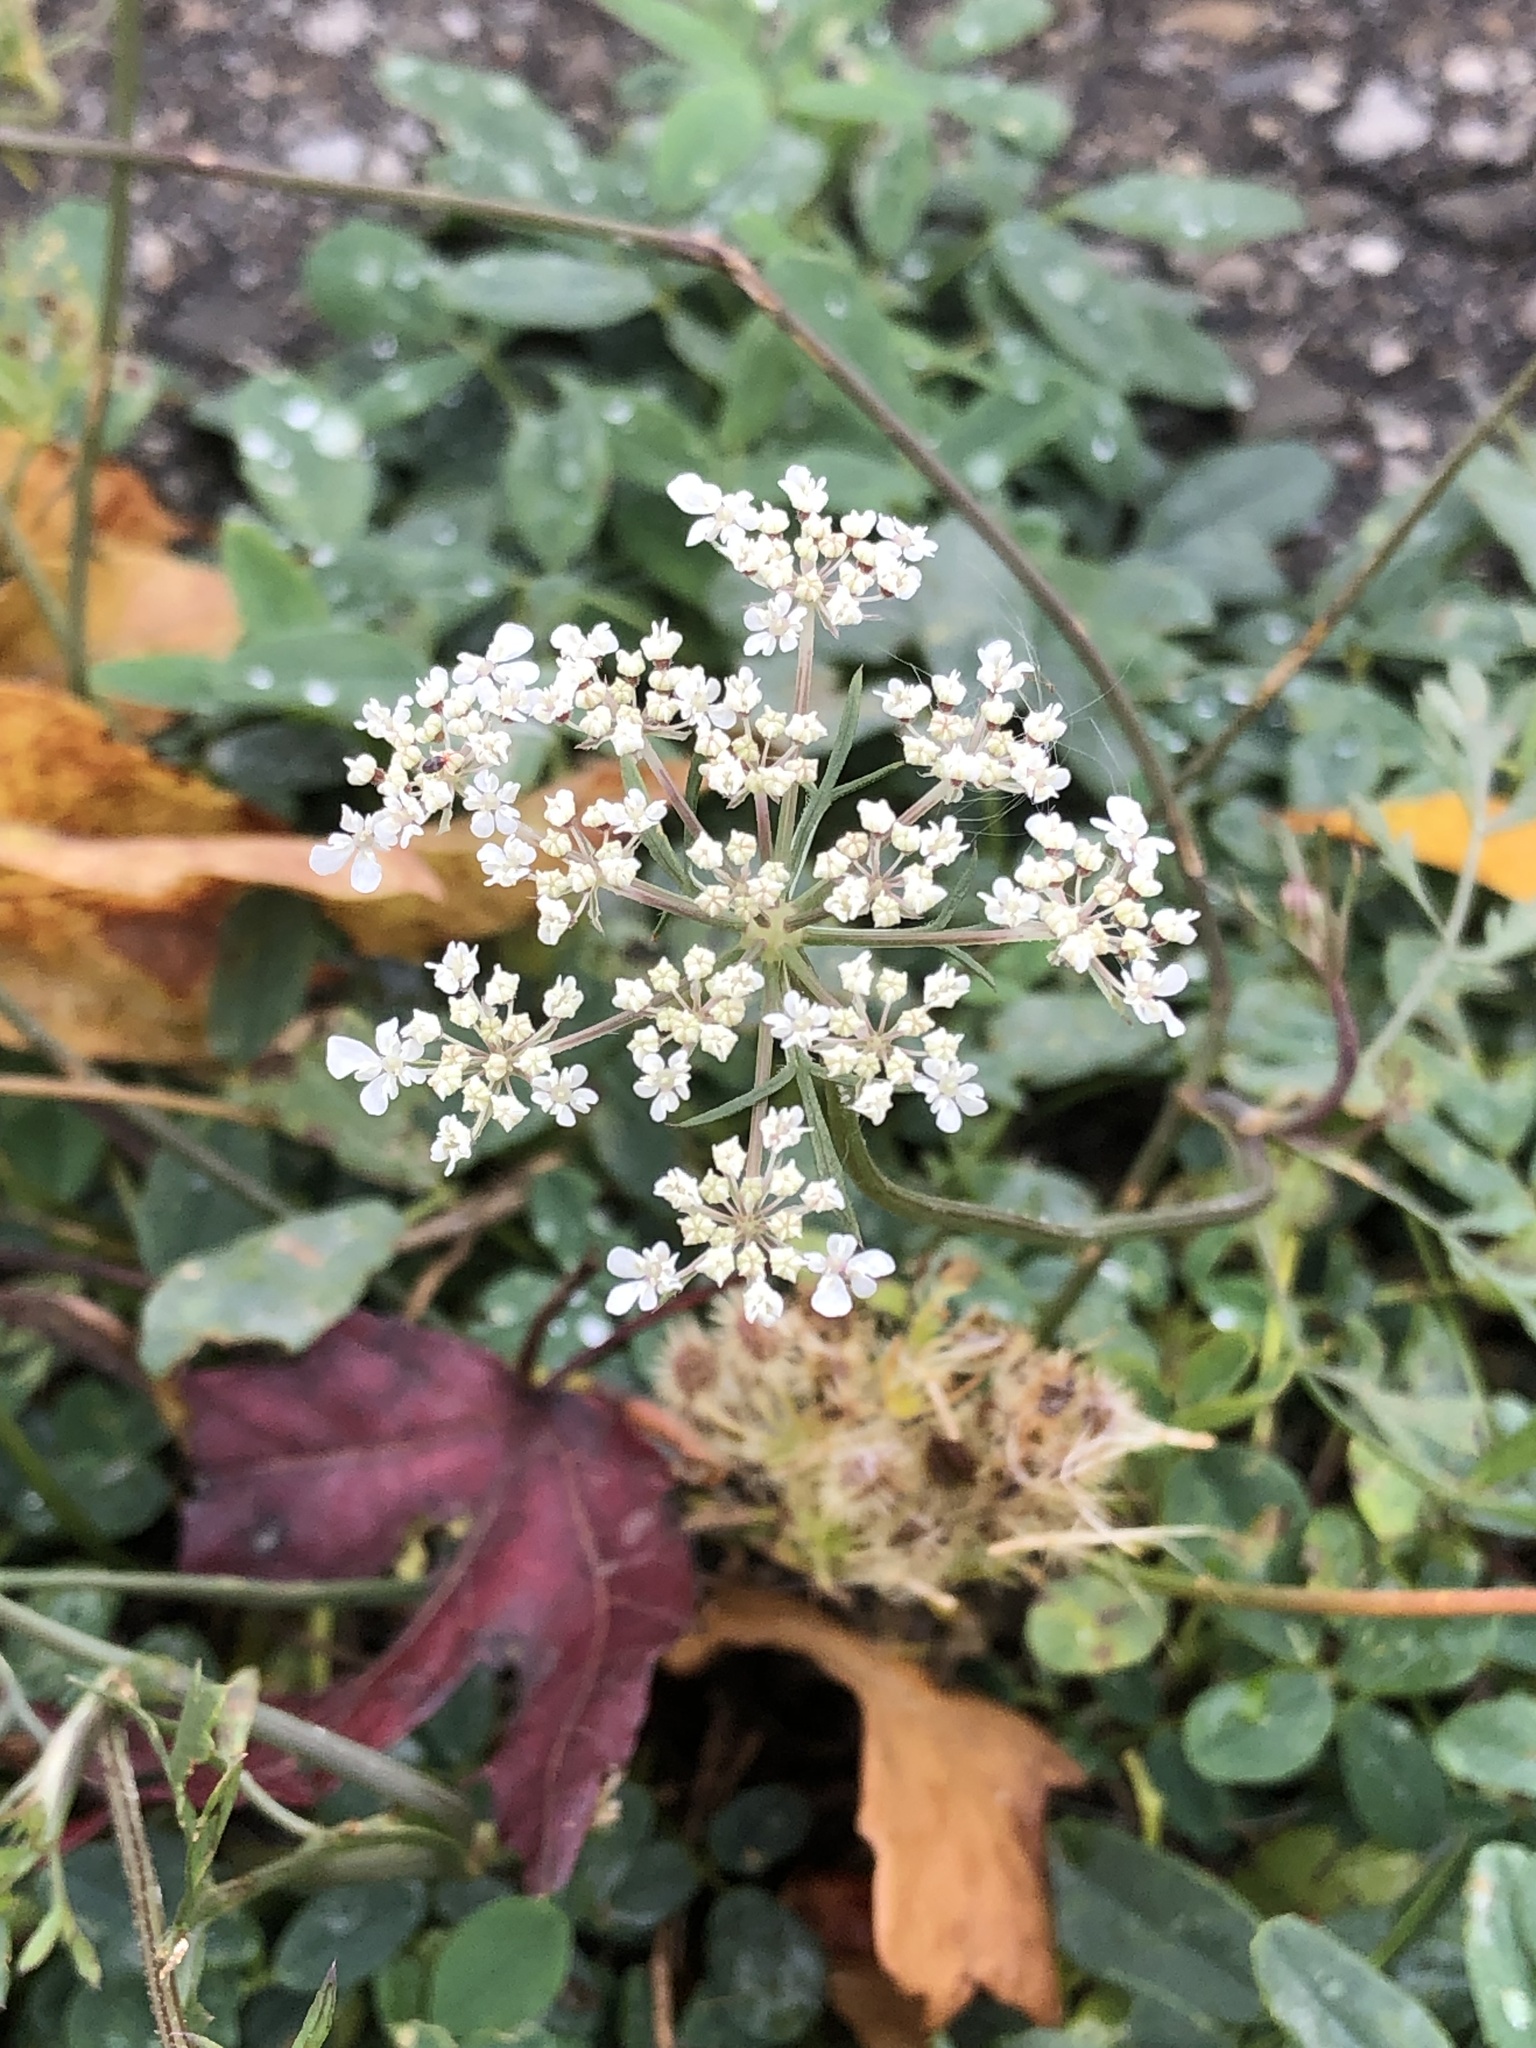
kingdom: Plantae
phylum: Tracheophyta
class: Magnoliopsida
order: Apiales
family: Apiaceae
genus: Daucus
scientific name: Daucus carota
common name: Wild carrot
